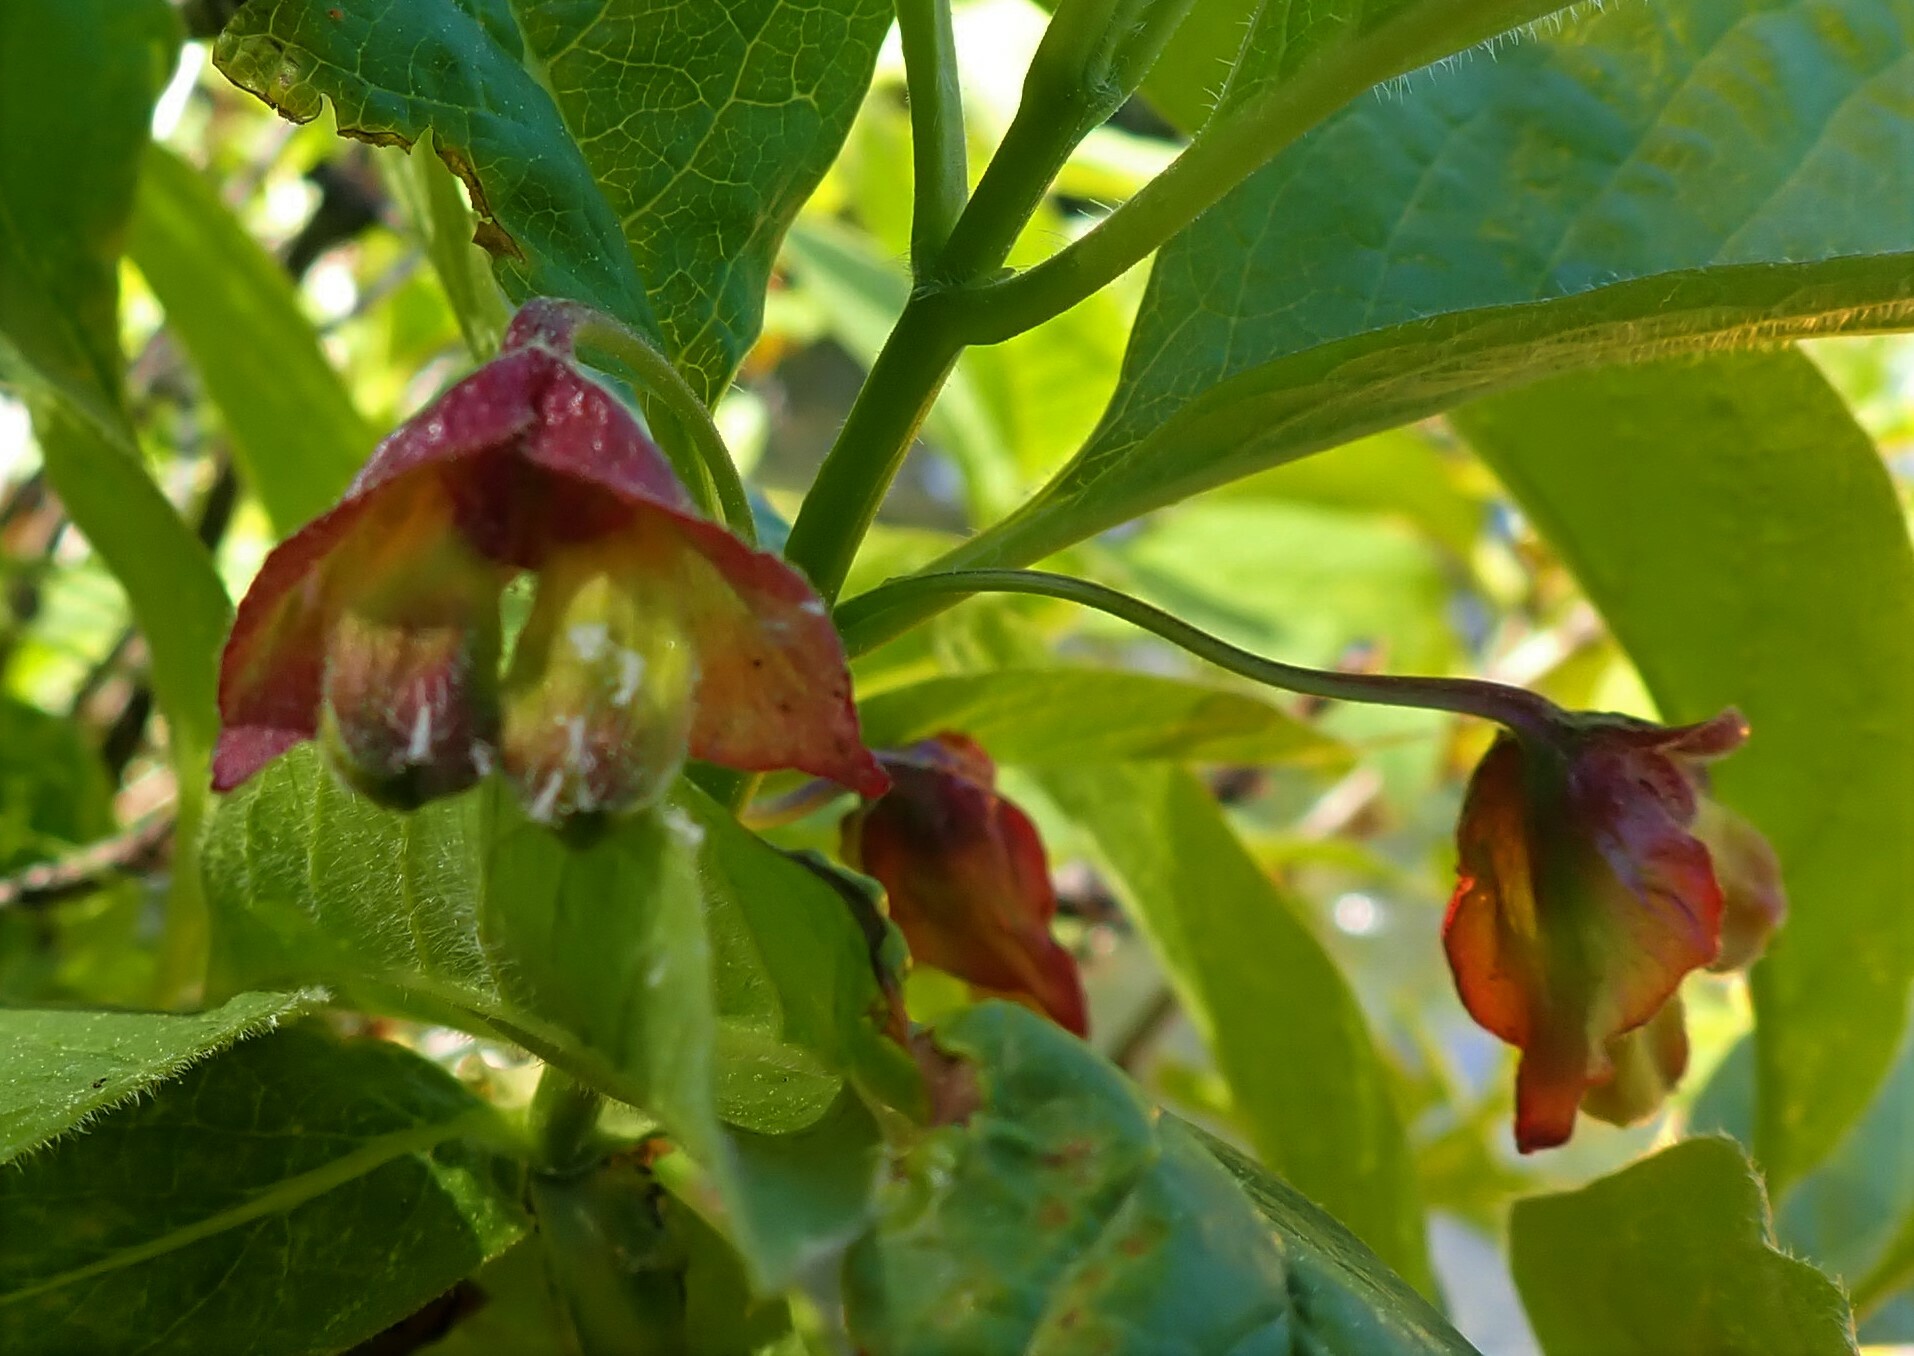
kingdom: Plantae
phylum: Tracheophyta
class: Magnoliopsida
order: Dipsacales
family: Caprifoliaceae
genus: Lonicera
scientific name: Lonicera involucrata
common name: Californian honeysuckle
